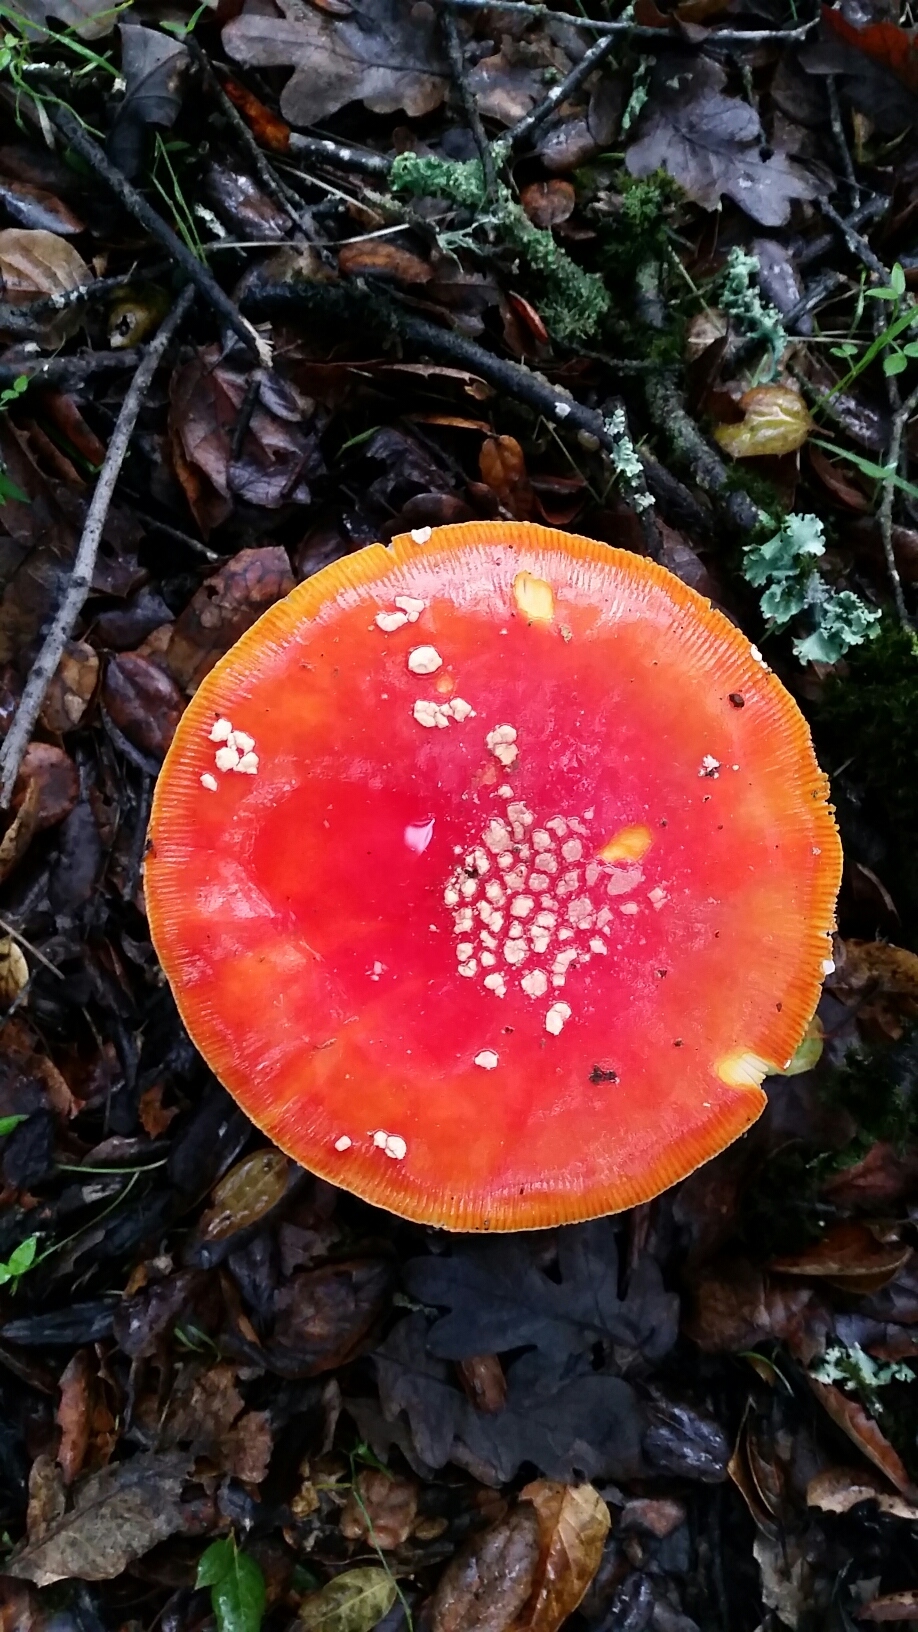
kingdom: Fungi
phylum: Basidiomycota
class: Agaricomycetes
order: Agaricales
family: Amanitaceae
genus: Amanita
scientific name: Amanita muscaria
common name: Fly agaric
